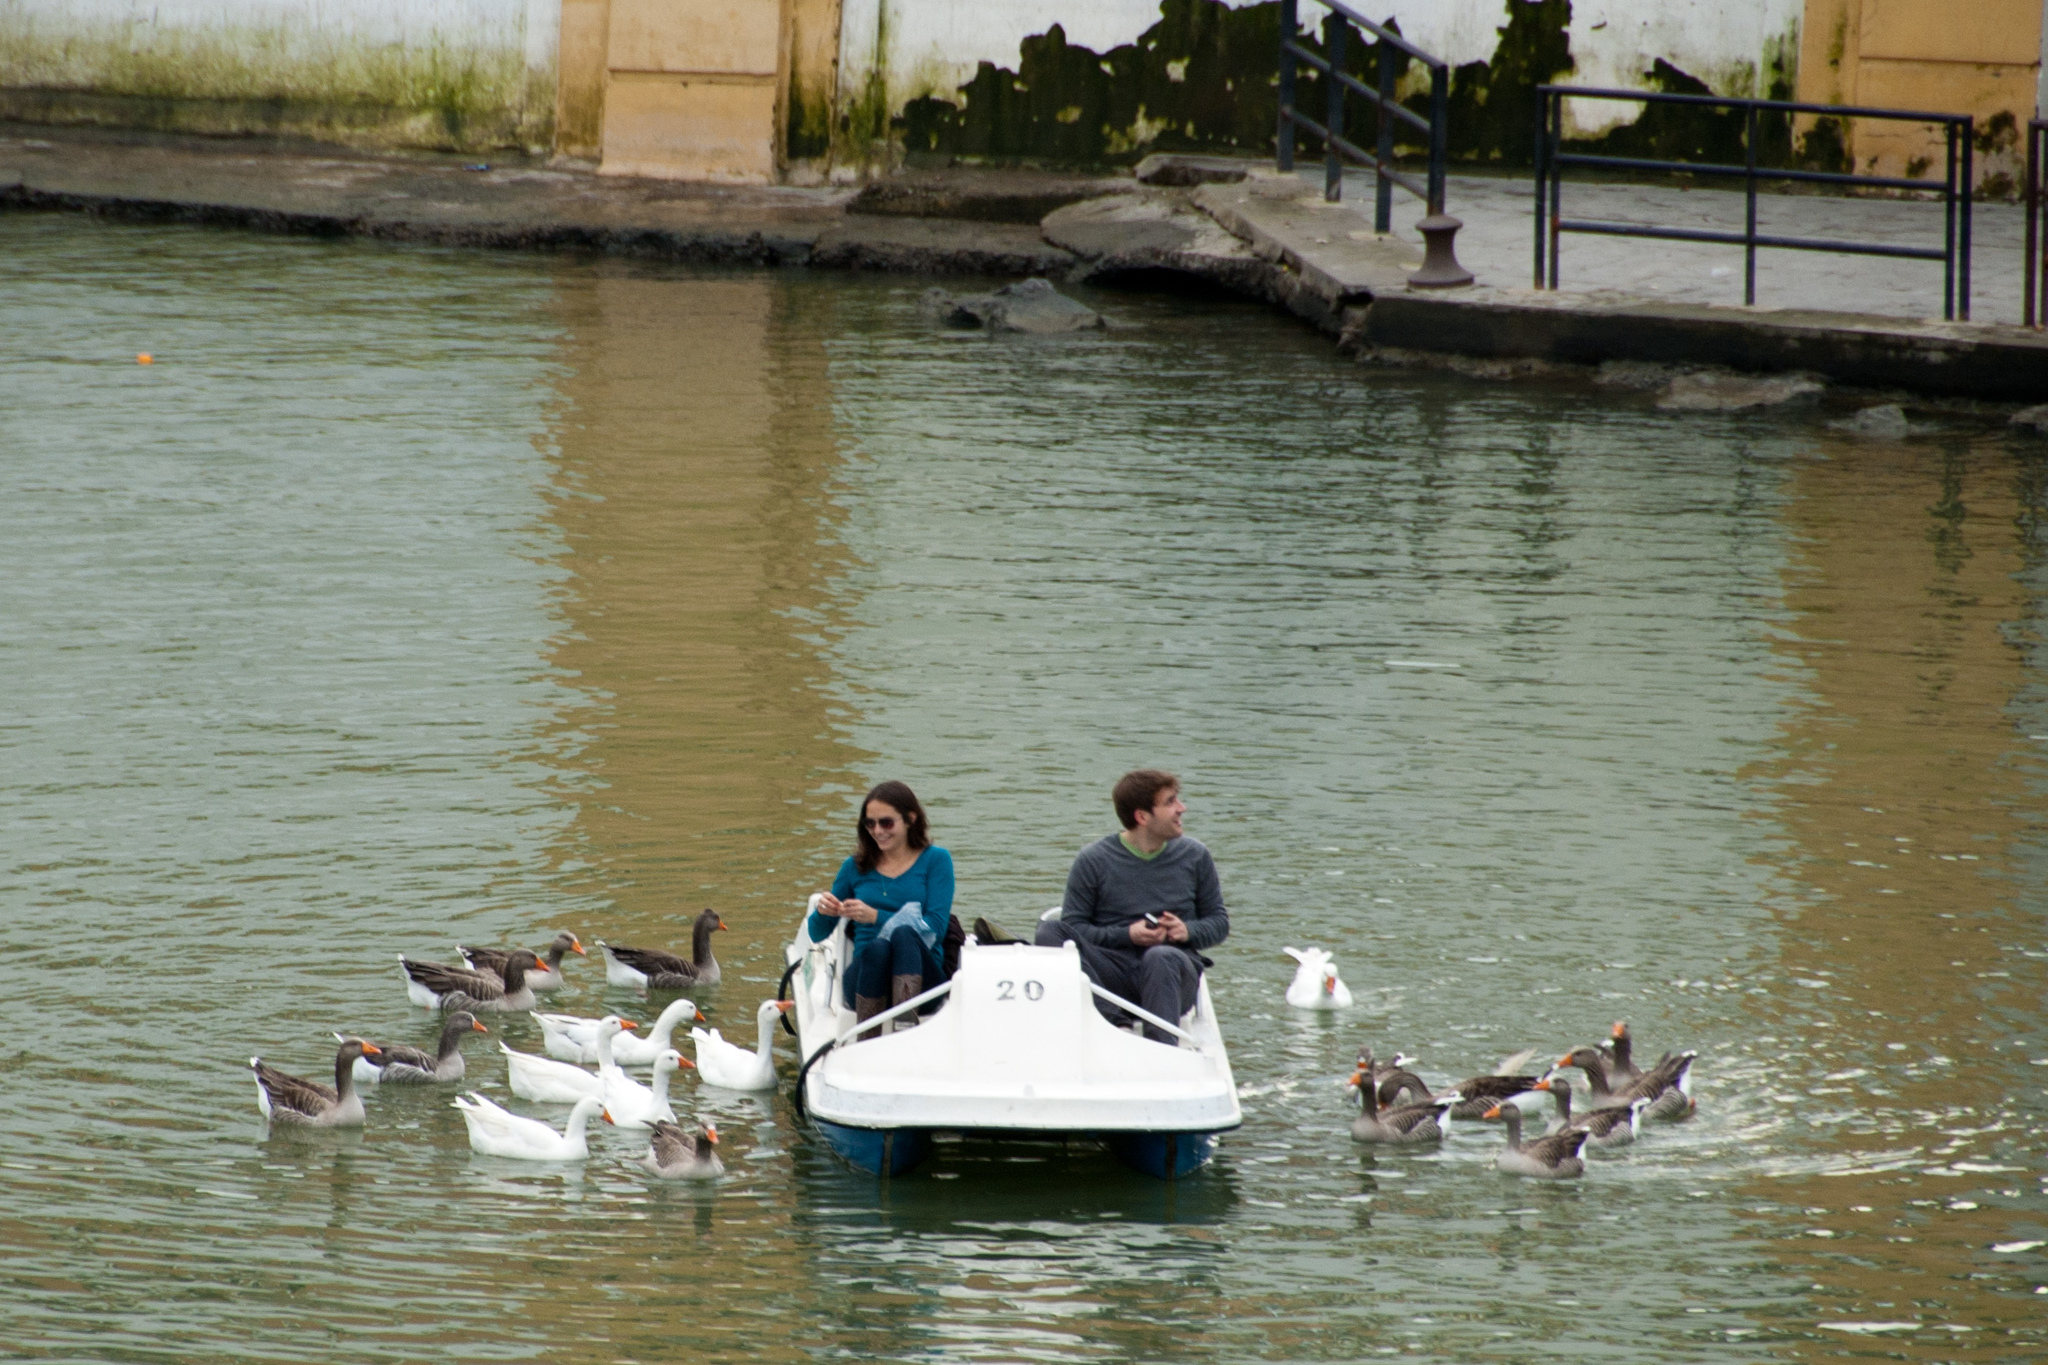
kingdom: Animalia
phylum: Chordata
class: Aves
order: Anseriformes
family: Anatidae
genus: Anser
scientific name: Anser anser
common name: Greylag goose
